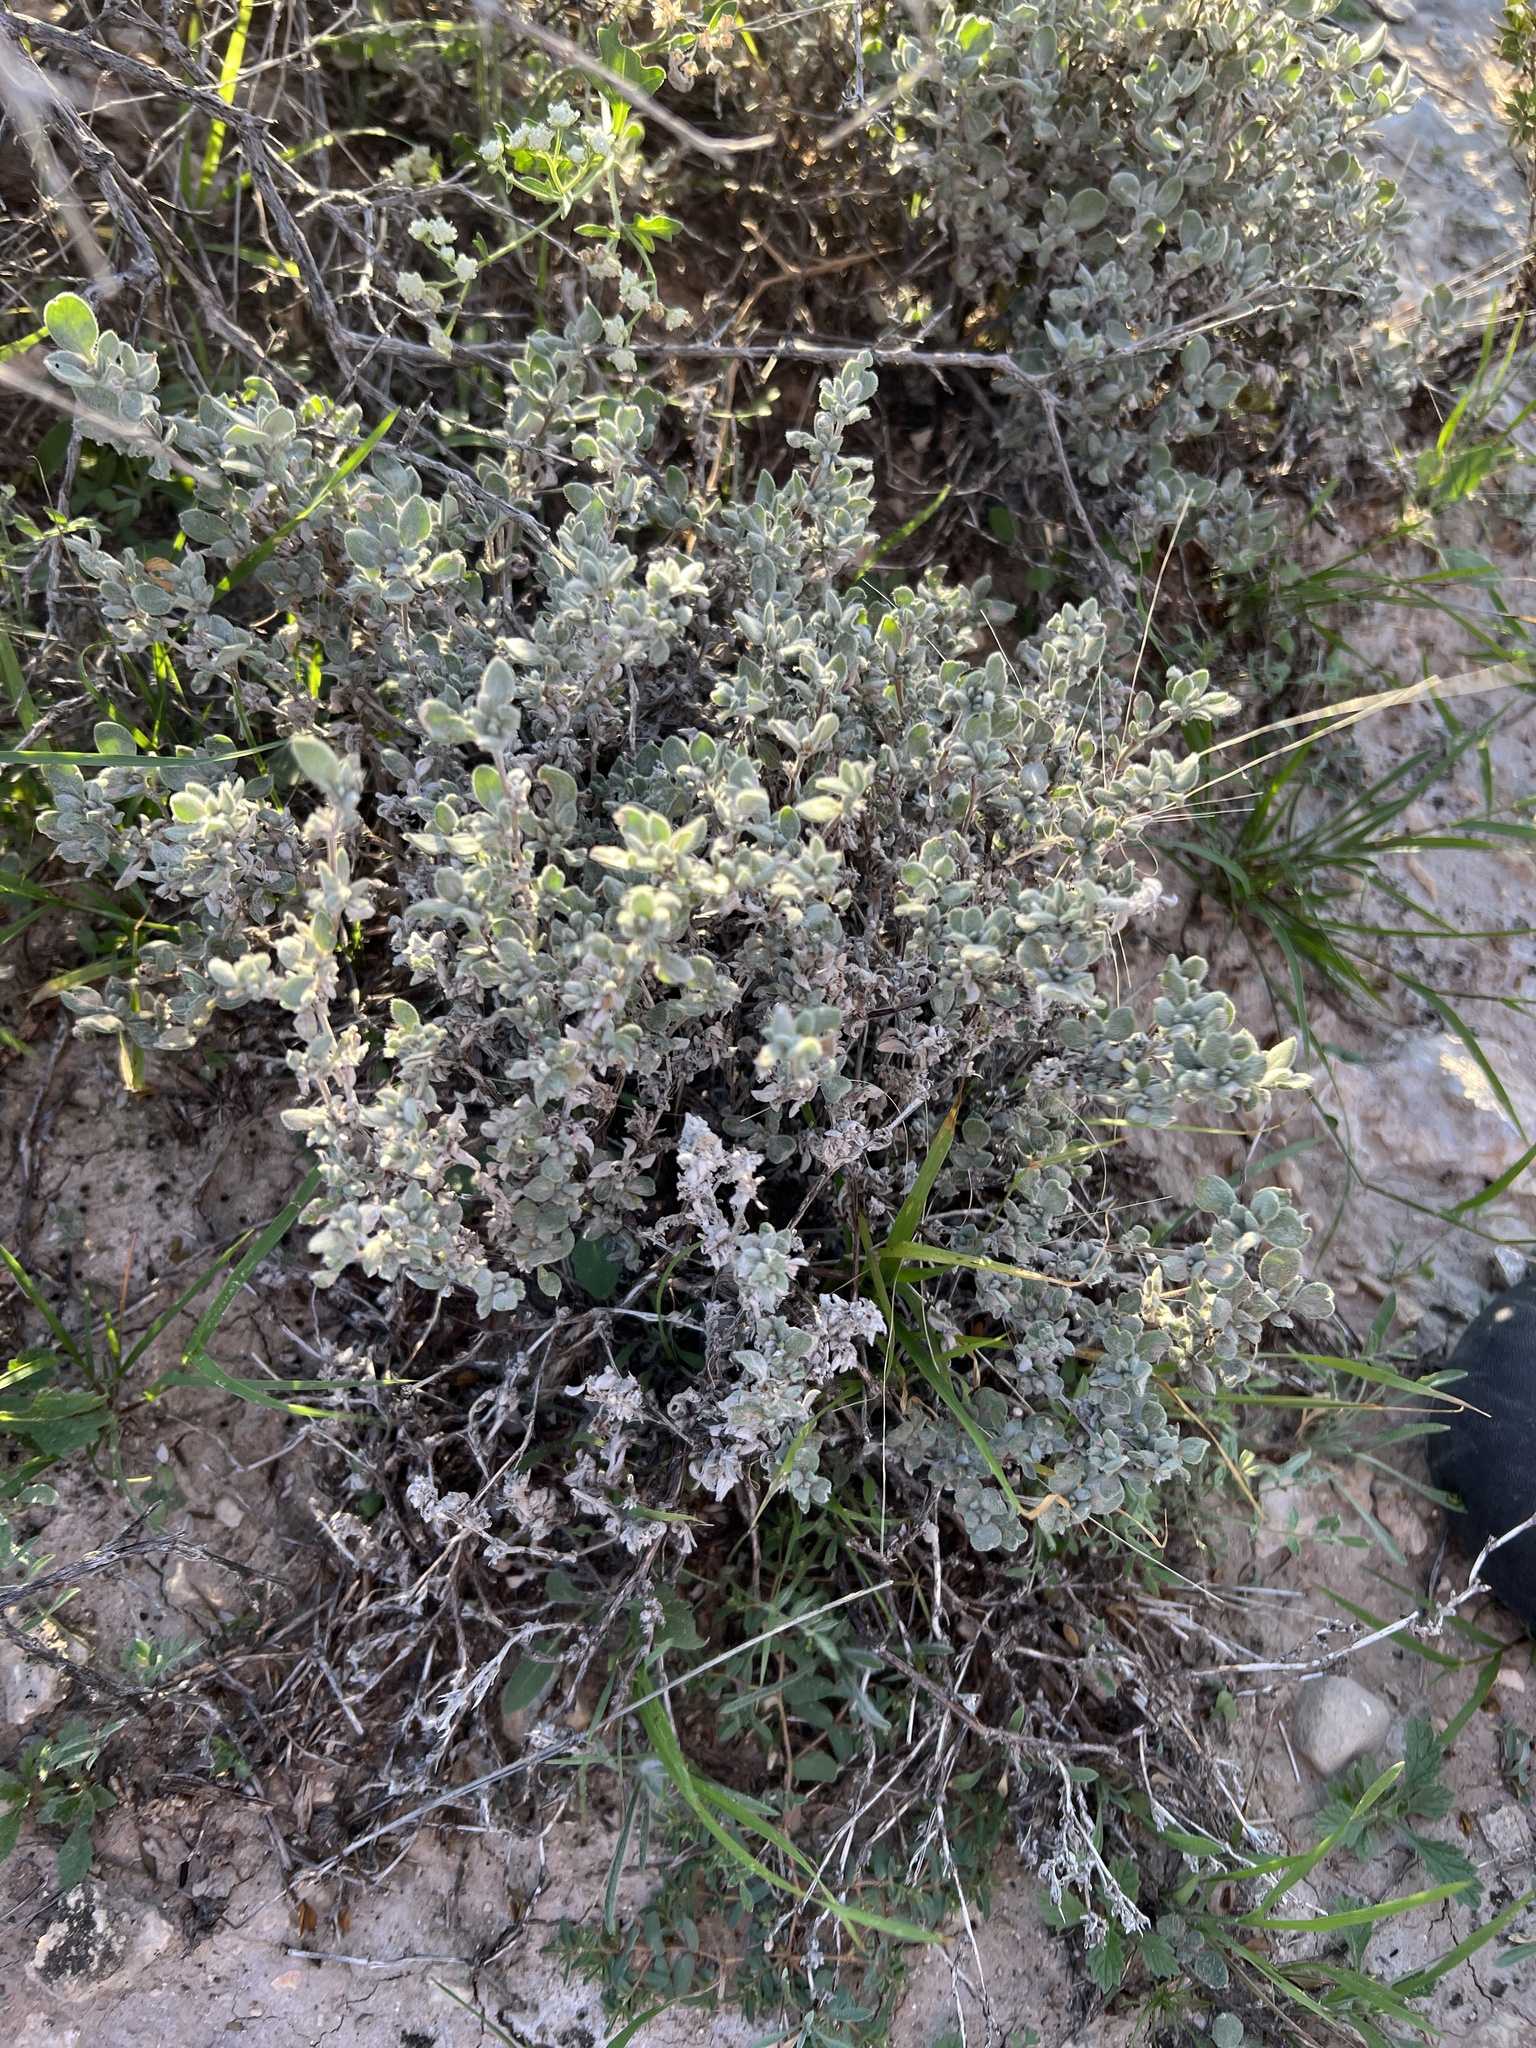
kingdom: Plantae
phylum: Tracheophyta
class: Magnoliopsida
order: Boraginales
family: Ehretiaceae
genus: Tiquilia
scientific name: Tiquilia canescens
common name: Hairy tiquilia
